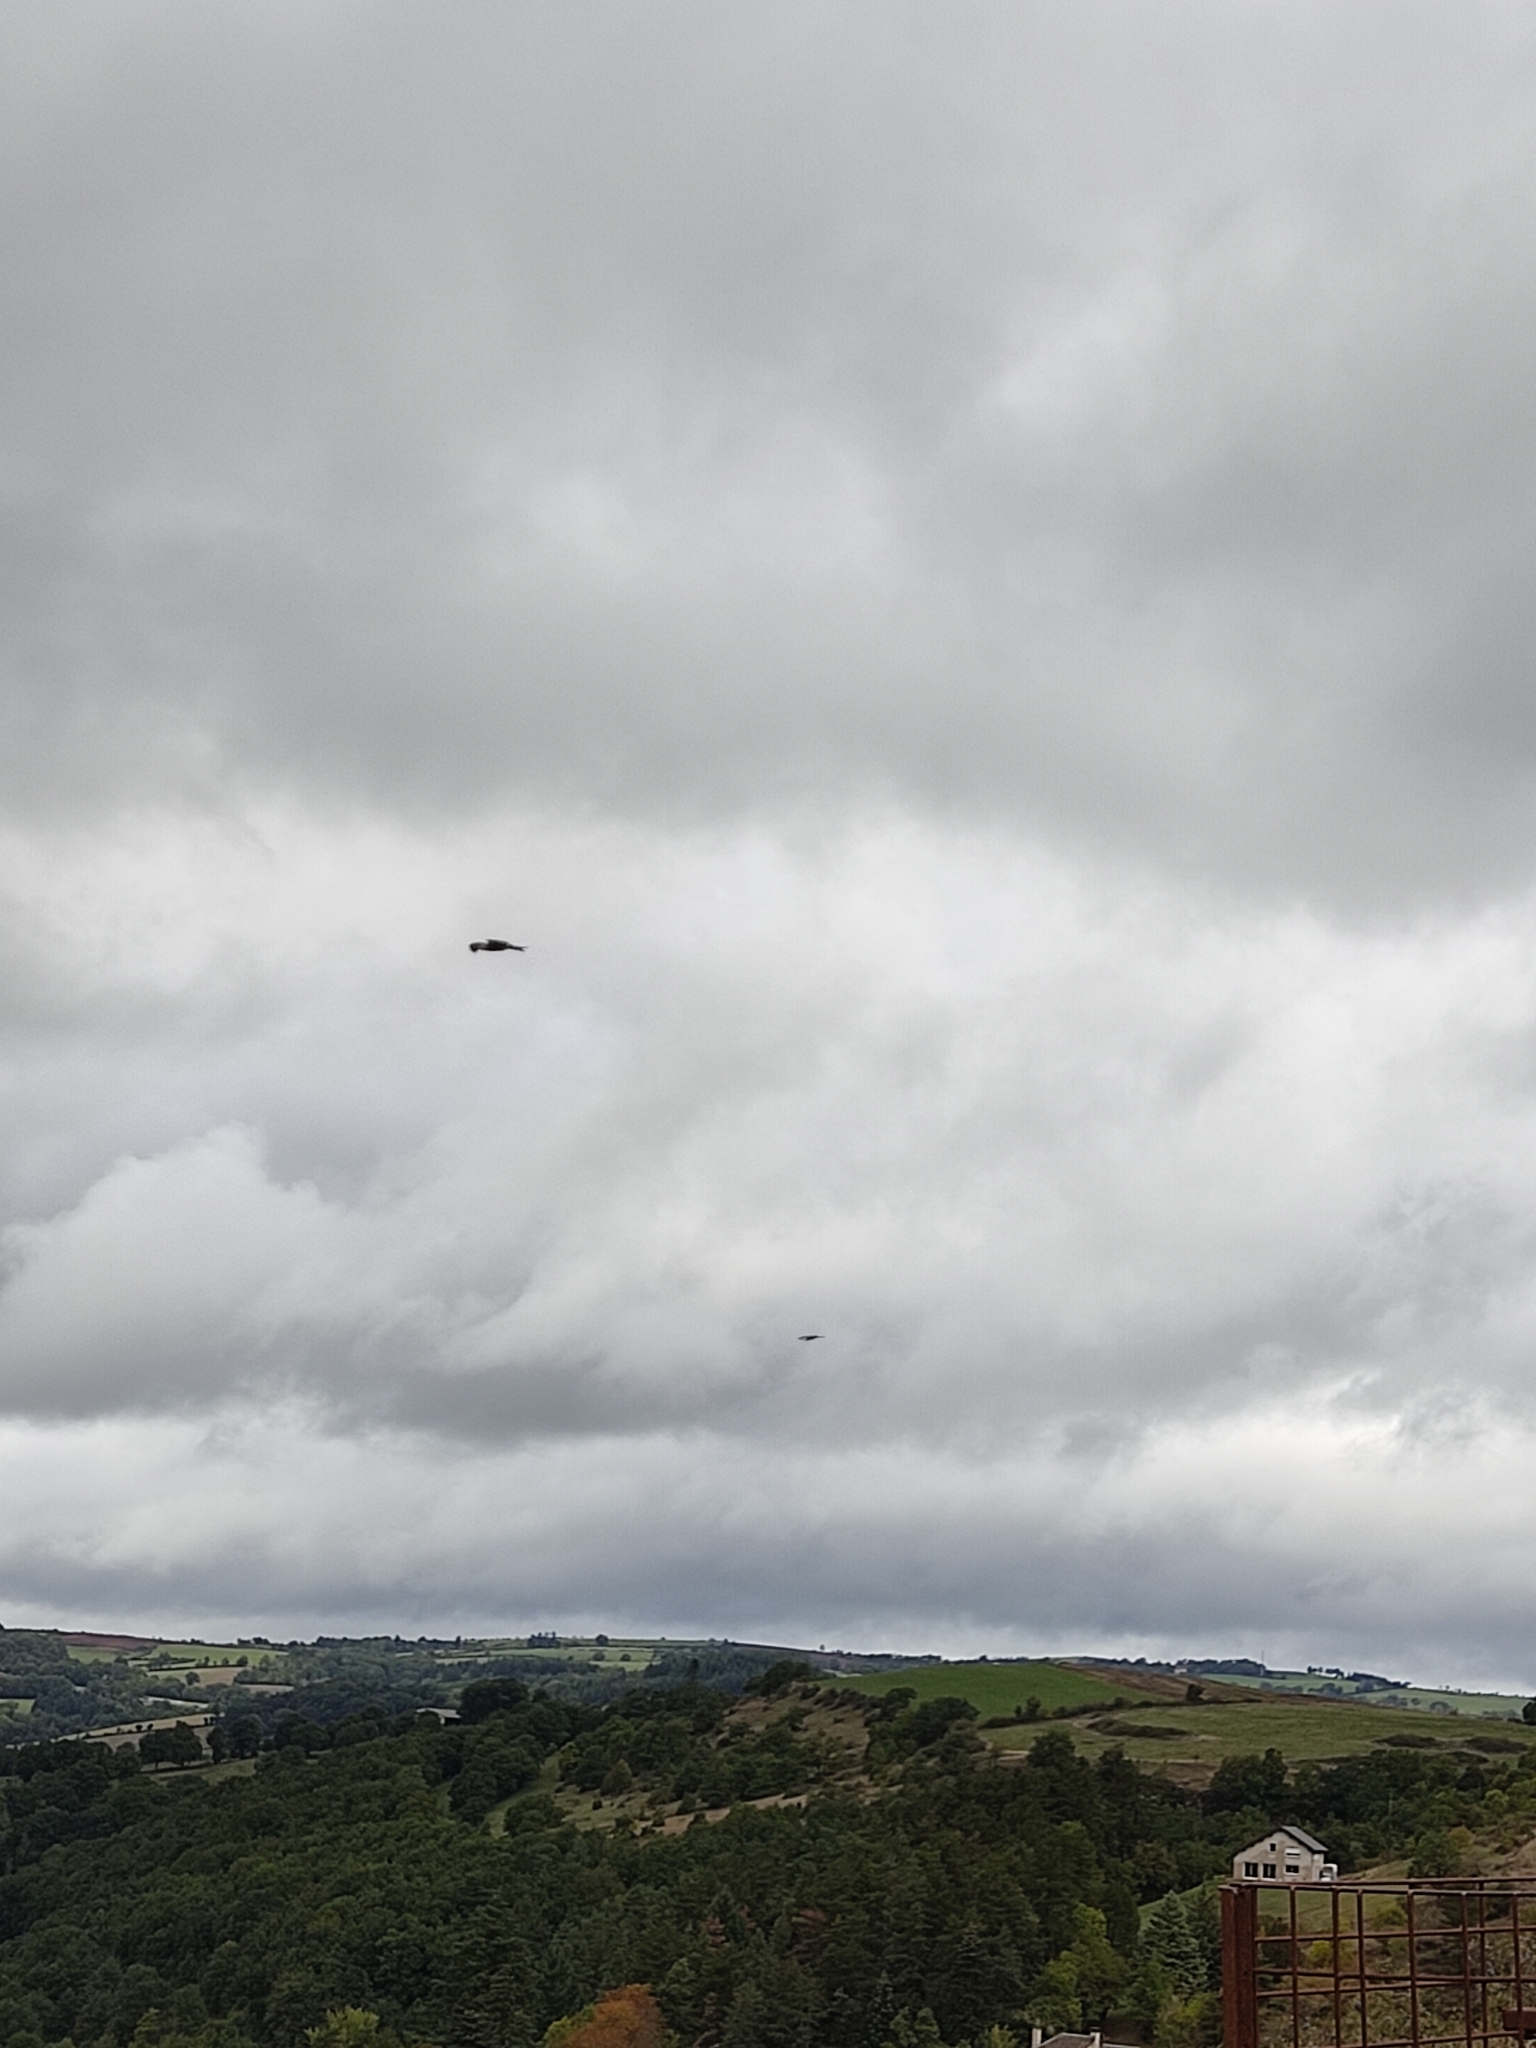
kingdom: Animalia
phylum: Chordata
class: Aves
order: Accipitriformes
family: Accipitridae
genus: Milvus
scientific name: Milvus milvus
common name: Red kite
